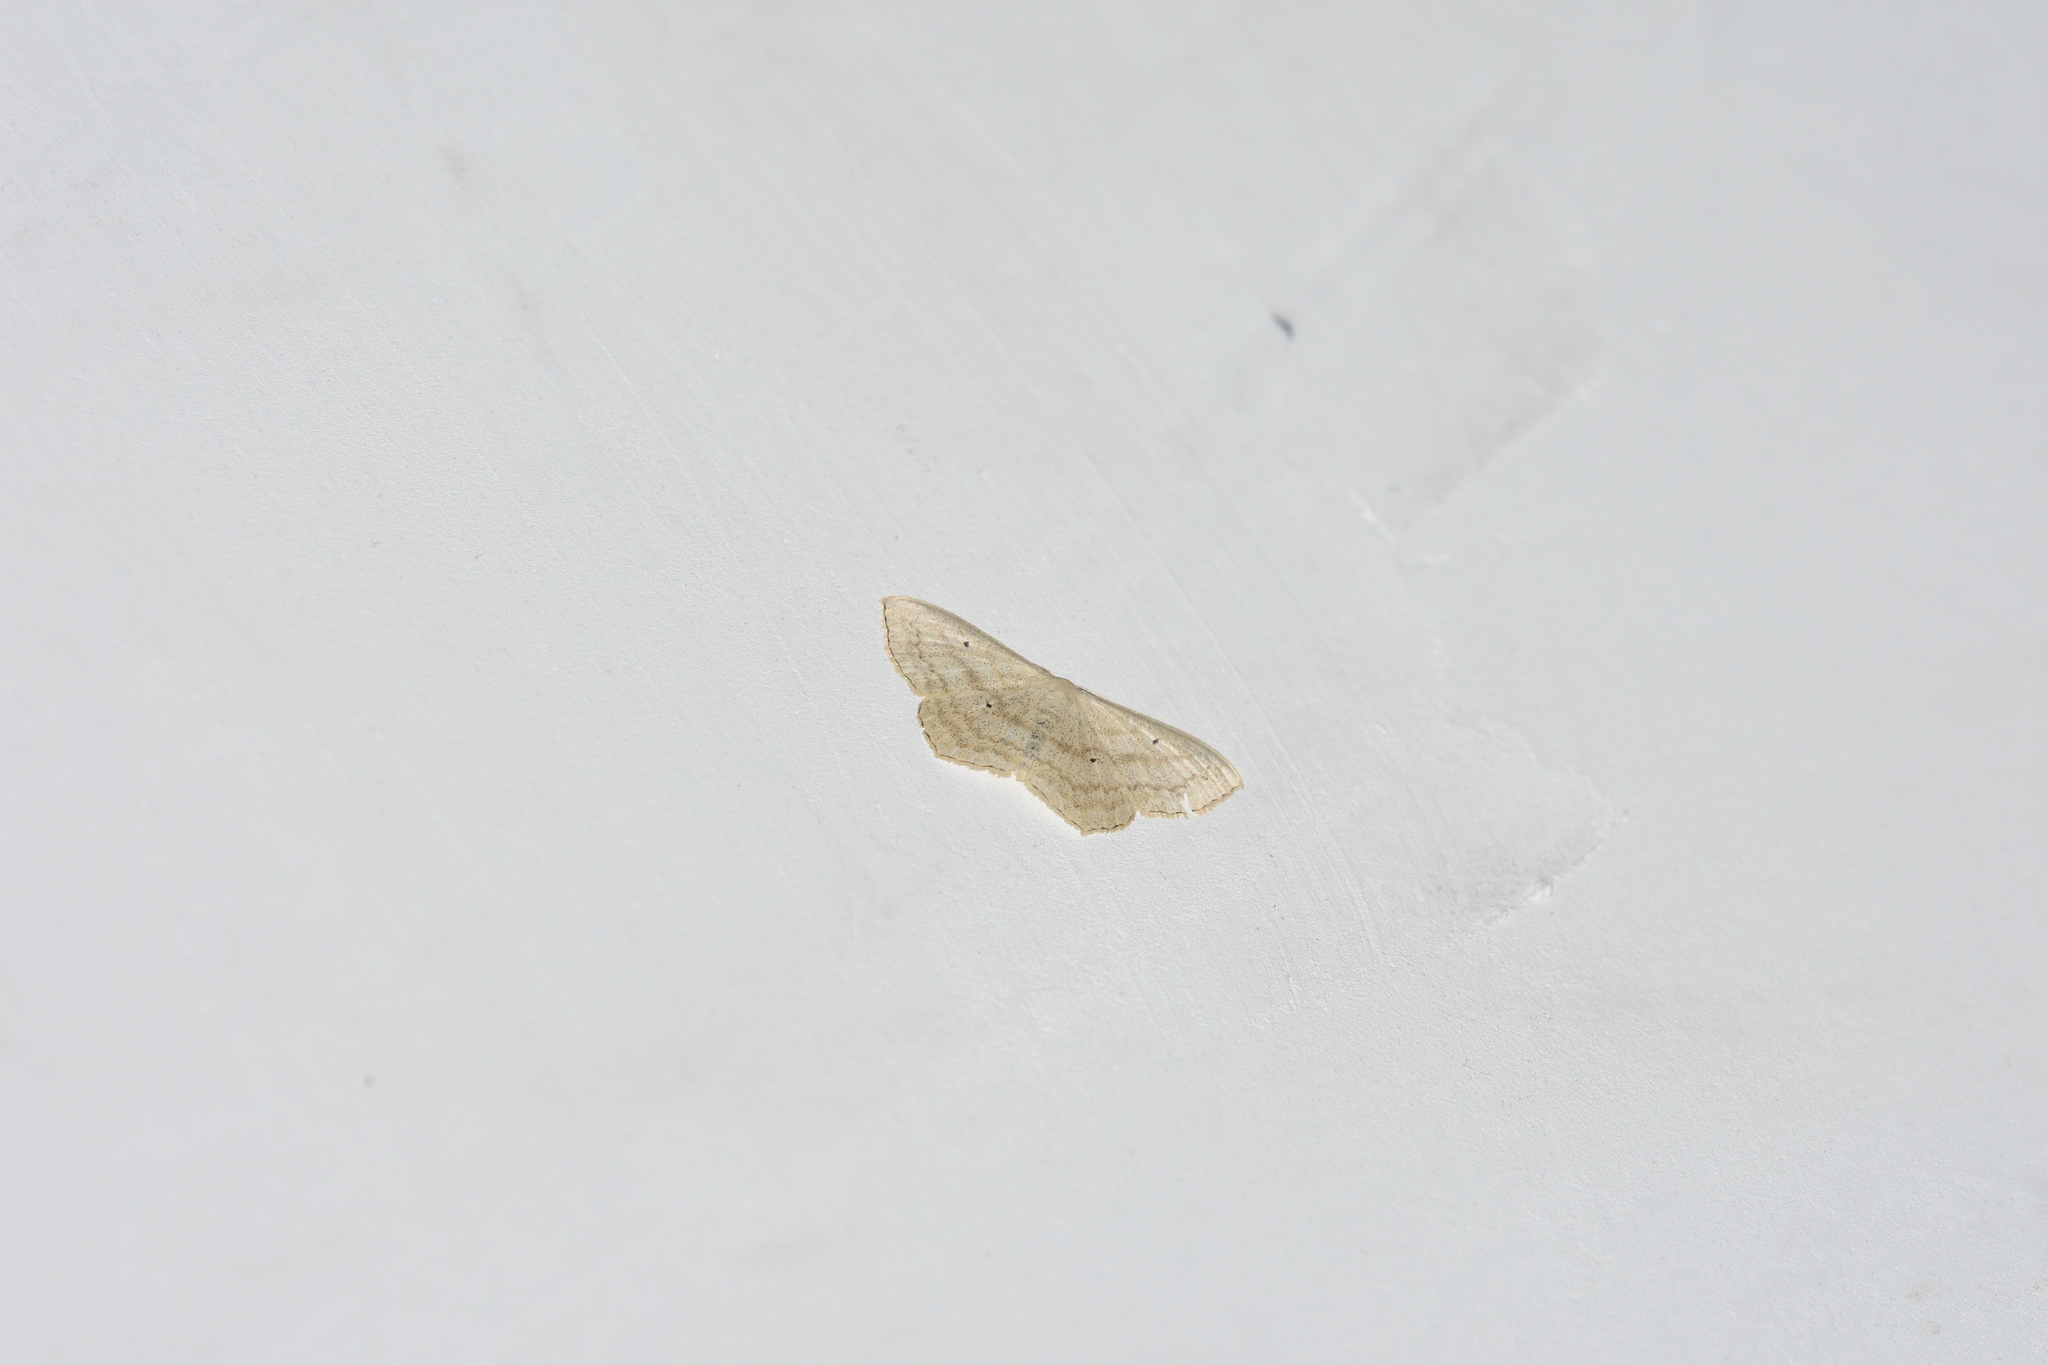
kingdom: Animalia
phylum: Arthropoda
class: Insecta
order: Lepidoptera
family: Geometridae
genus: Scopula
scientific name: Scopula nigropunctata
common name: Sub-angled wave
